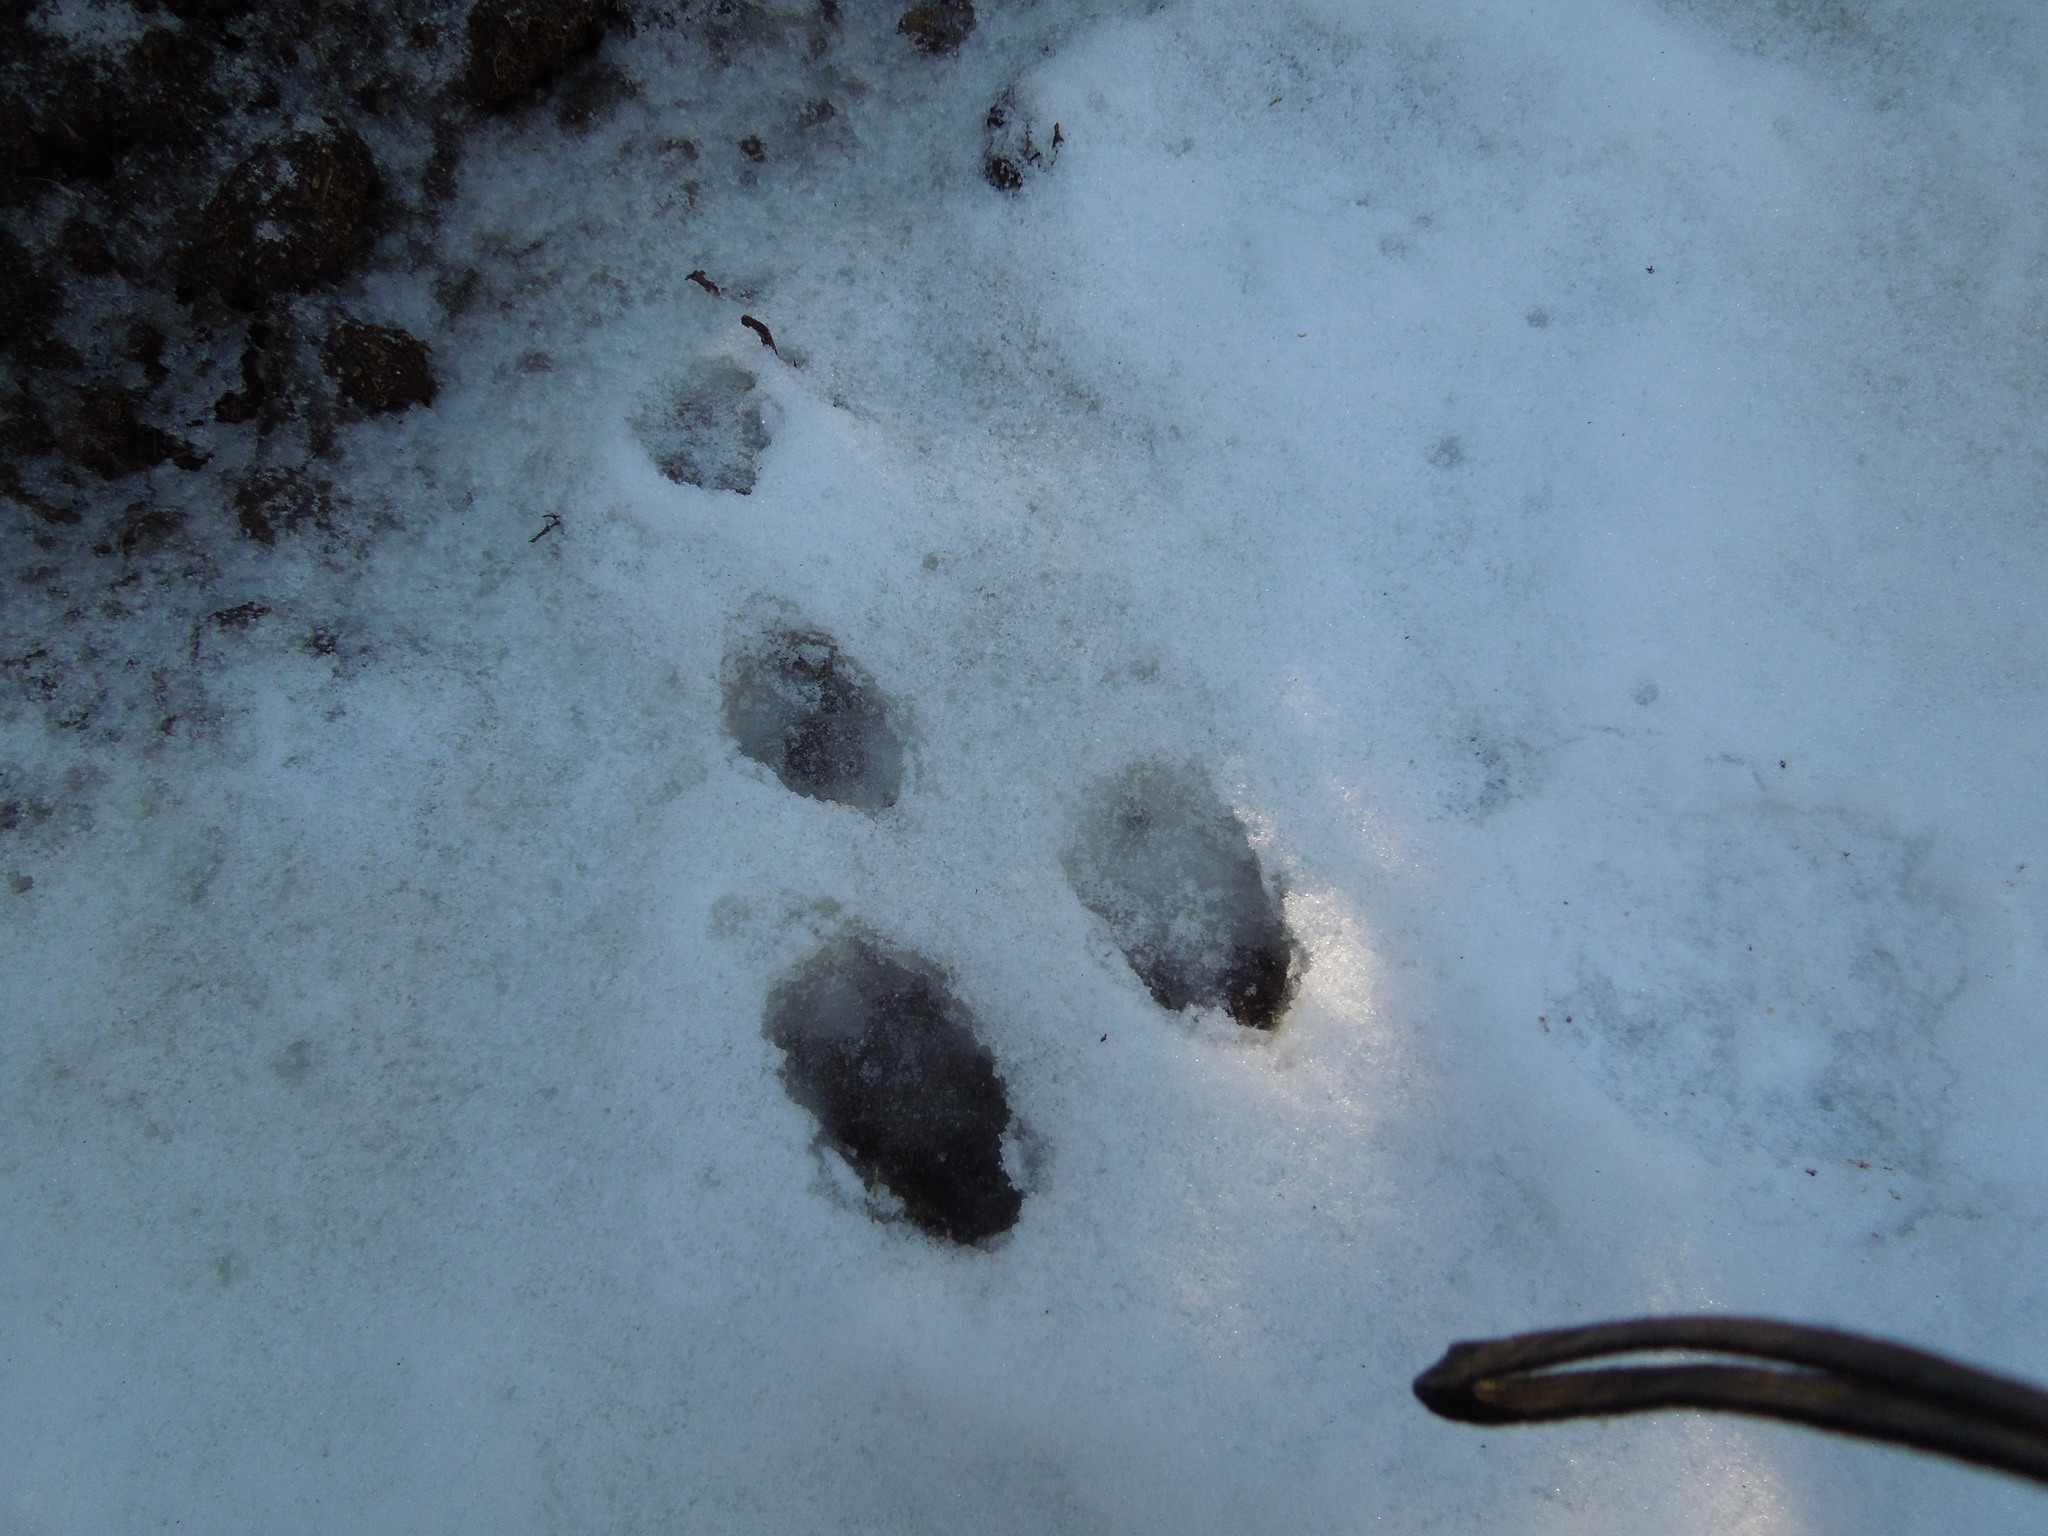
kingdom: Animalia
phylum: Chordata
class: Mammalia
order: Lagomorpha
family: Leporidae
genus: Lepus
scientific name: Lepus americanus
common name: Snowshoe hare
